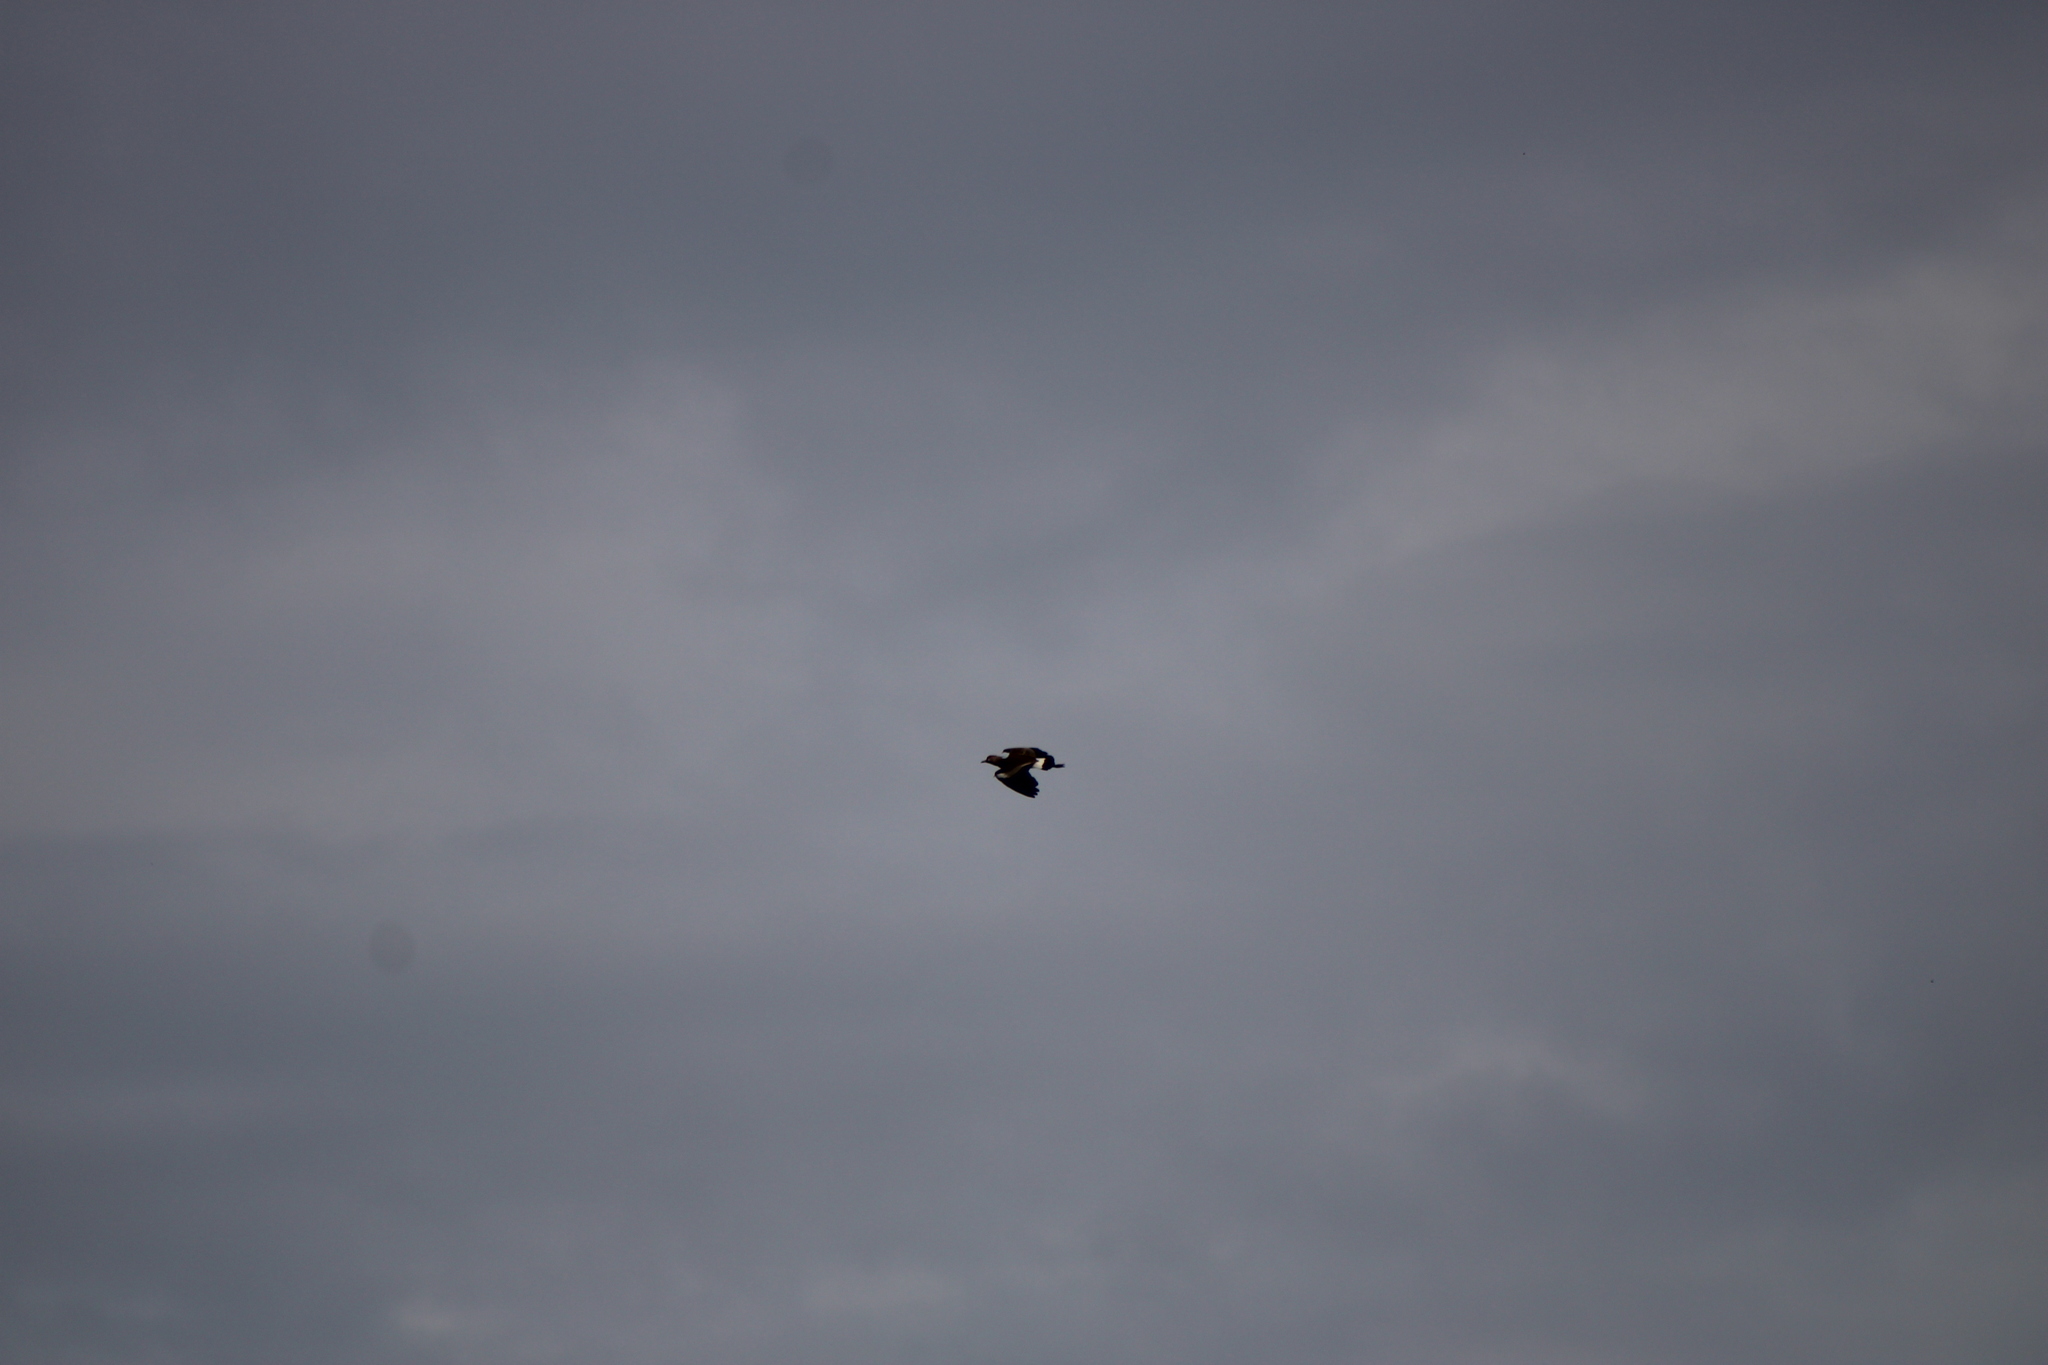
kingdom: Animalia
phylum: Chordata
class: Aves
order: Charadriiformes
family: Charadriidae
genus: Vanellus
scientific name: Vanellus chilensis
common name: Southern lapwing
